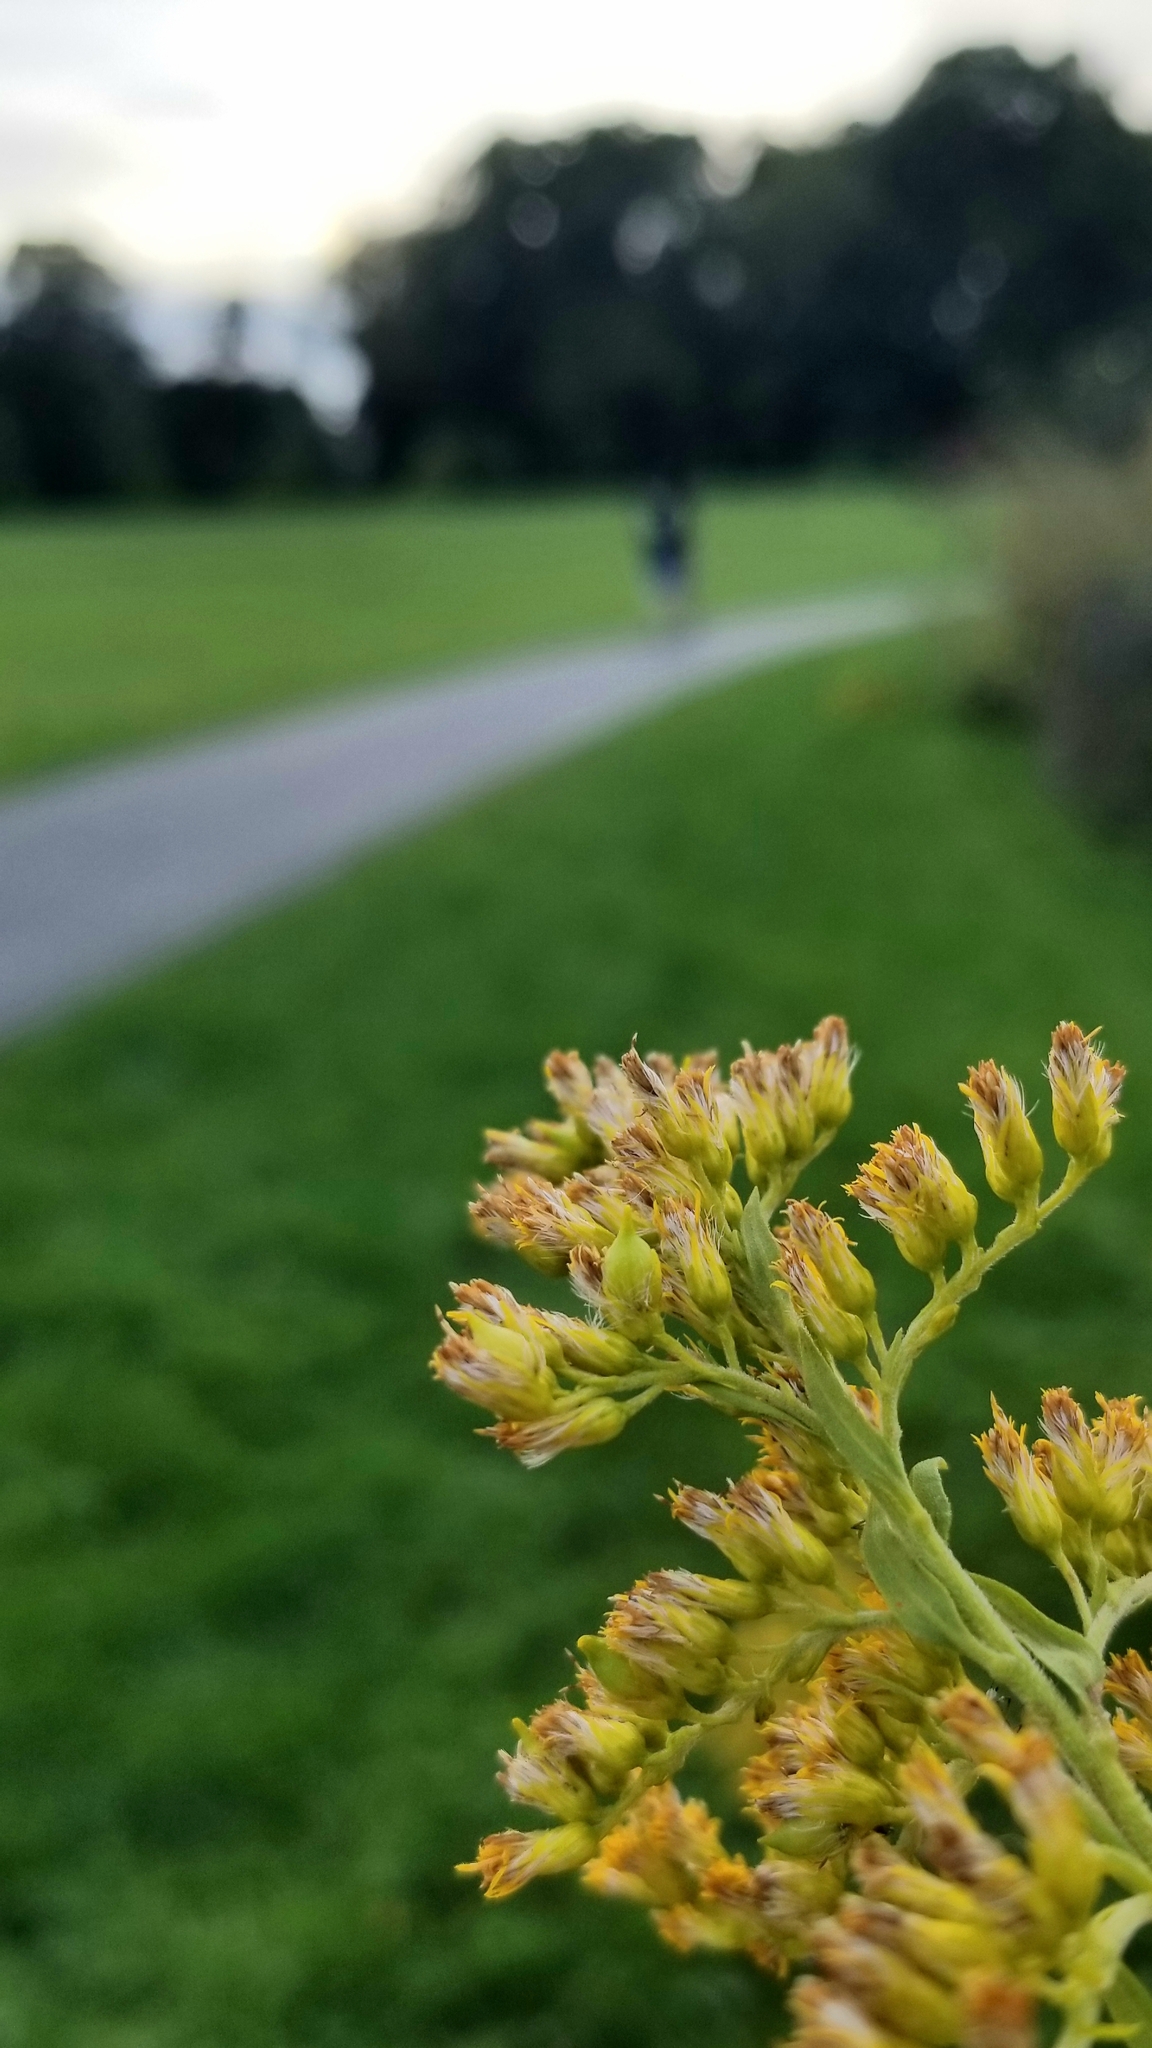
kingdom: Animalia
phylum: Arthropoda
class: Insecta
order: Diptera
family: Cecidomyiidae
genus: Schizomyia
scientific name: Schizomyia racemicola
